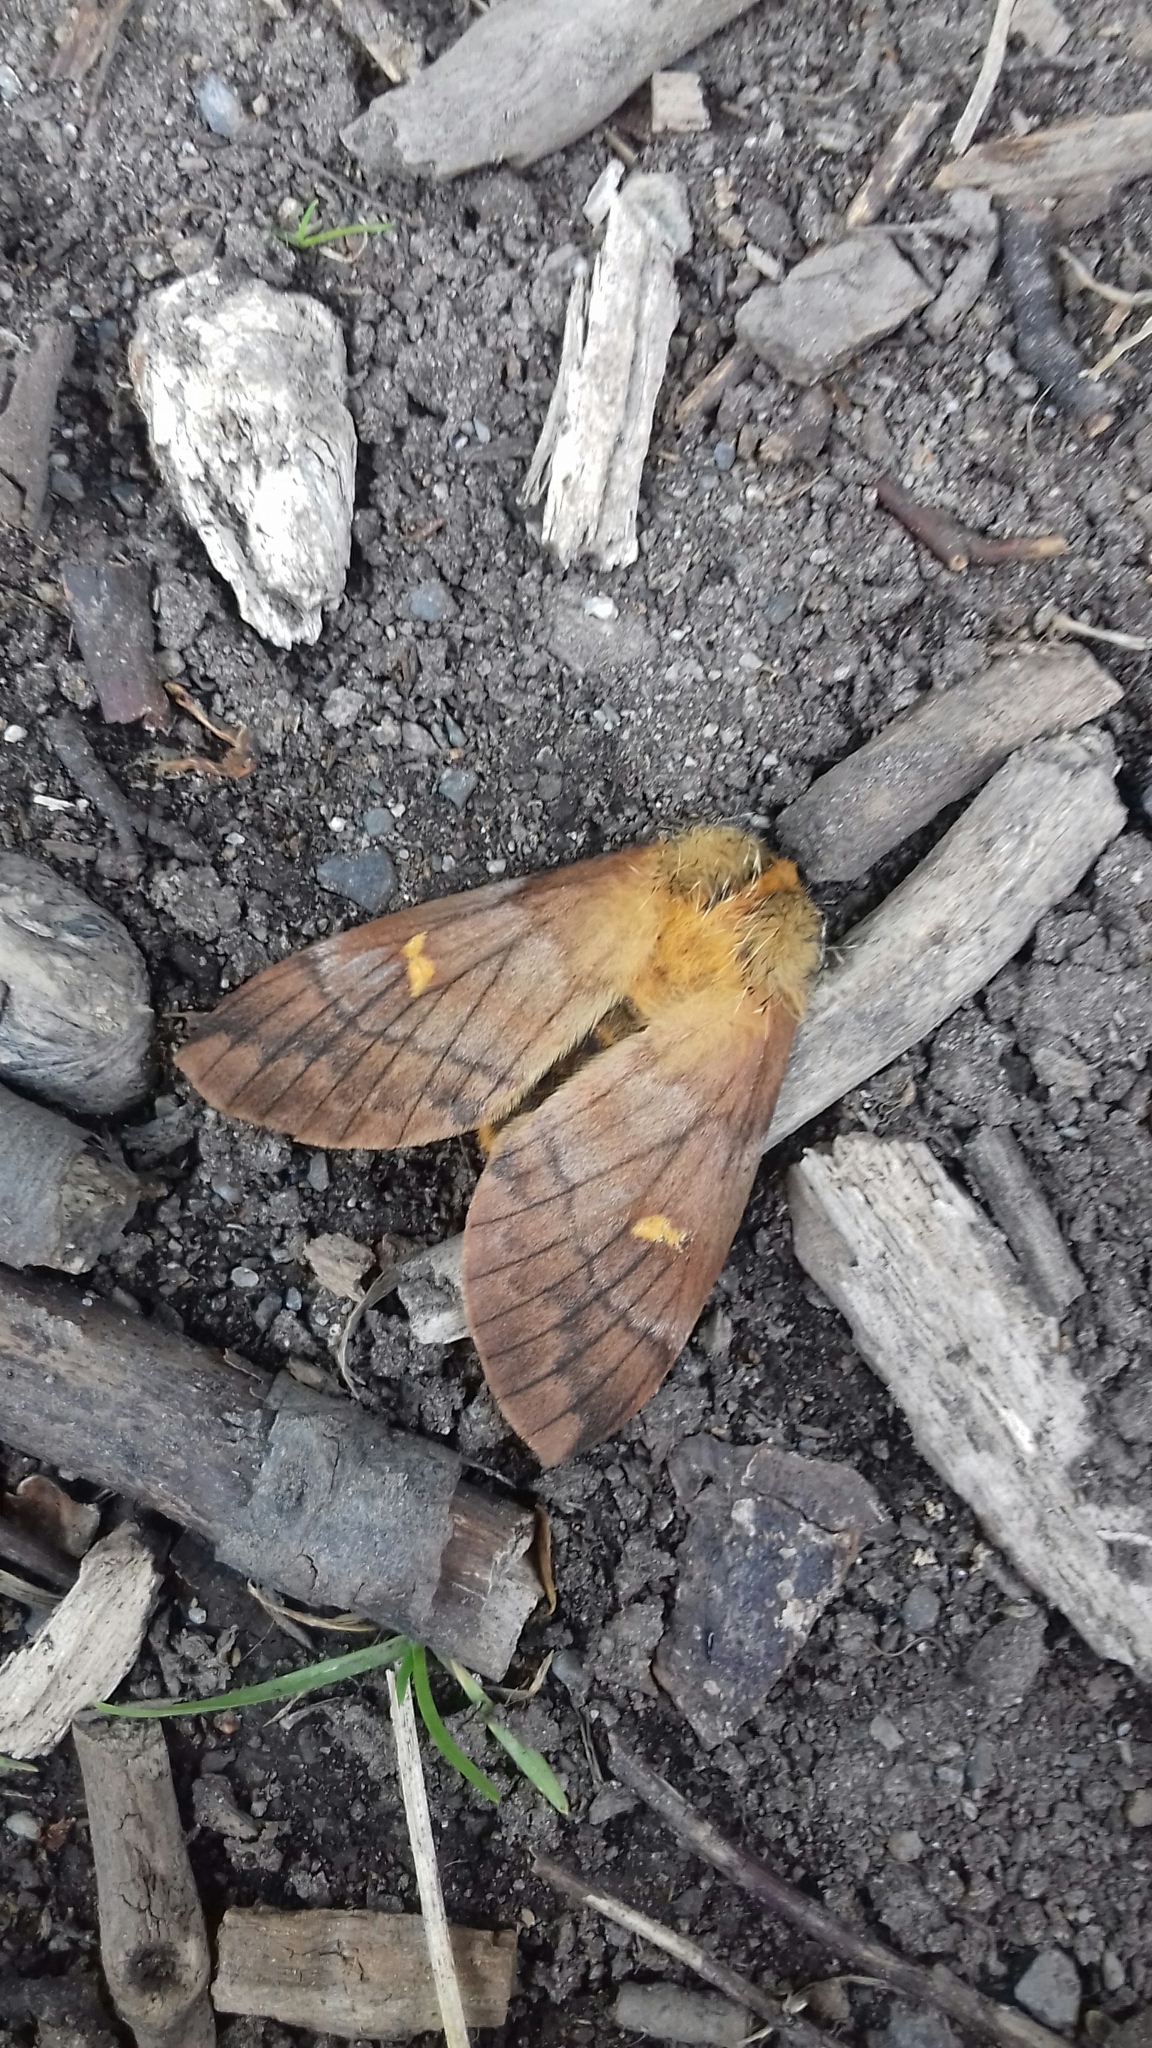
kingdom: Animalia
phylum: Arthropoda
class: Insecta
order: Lepidoptera
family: Saturniidae
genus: Ormiscodes
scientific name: Ormiscodes amphinome
